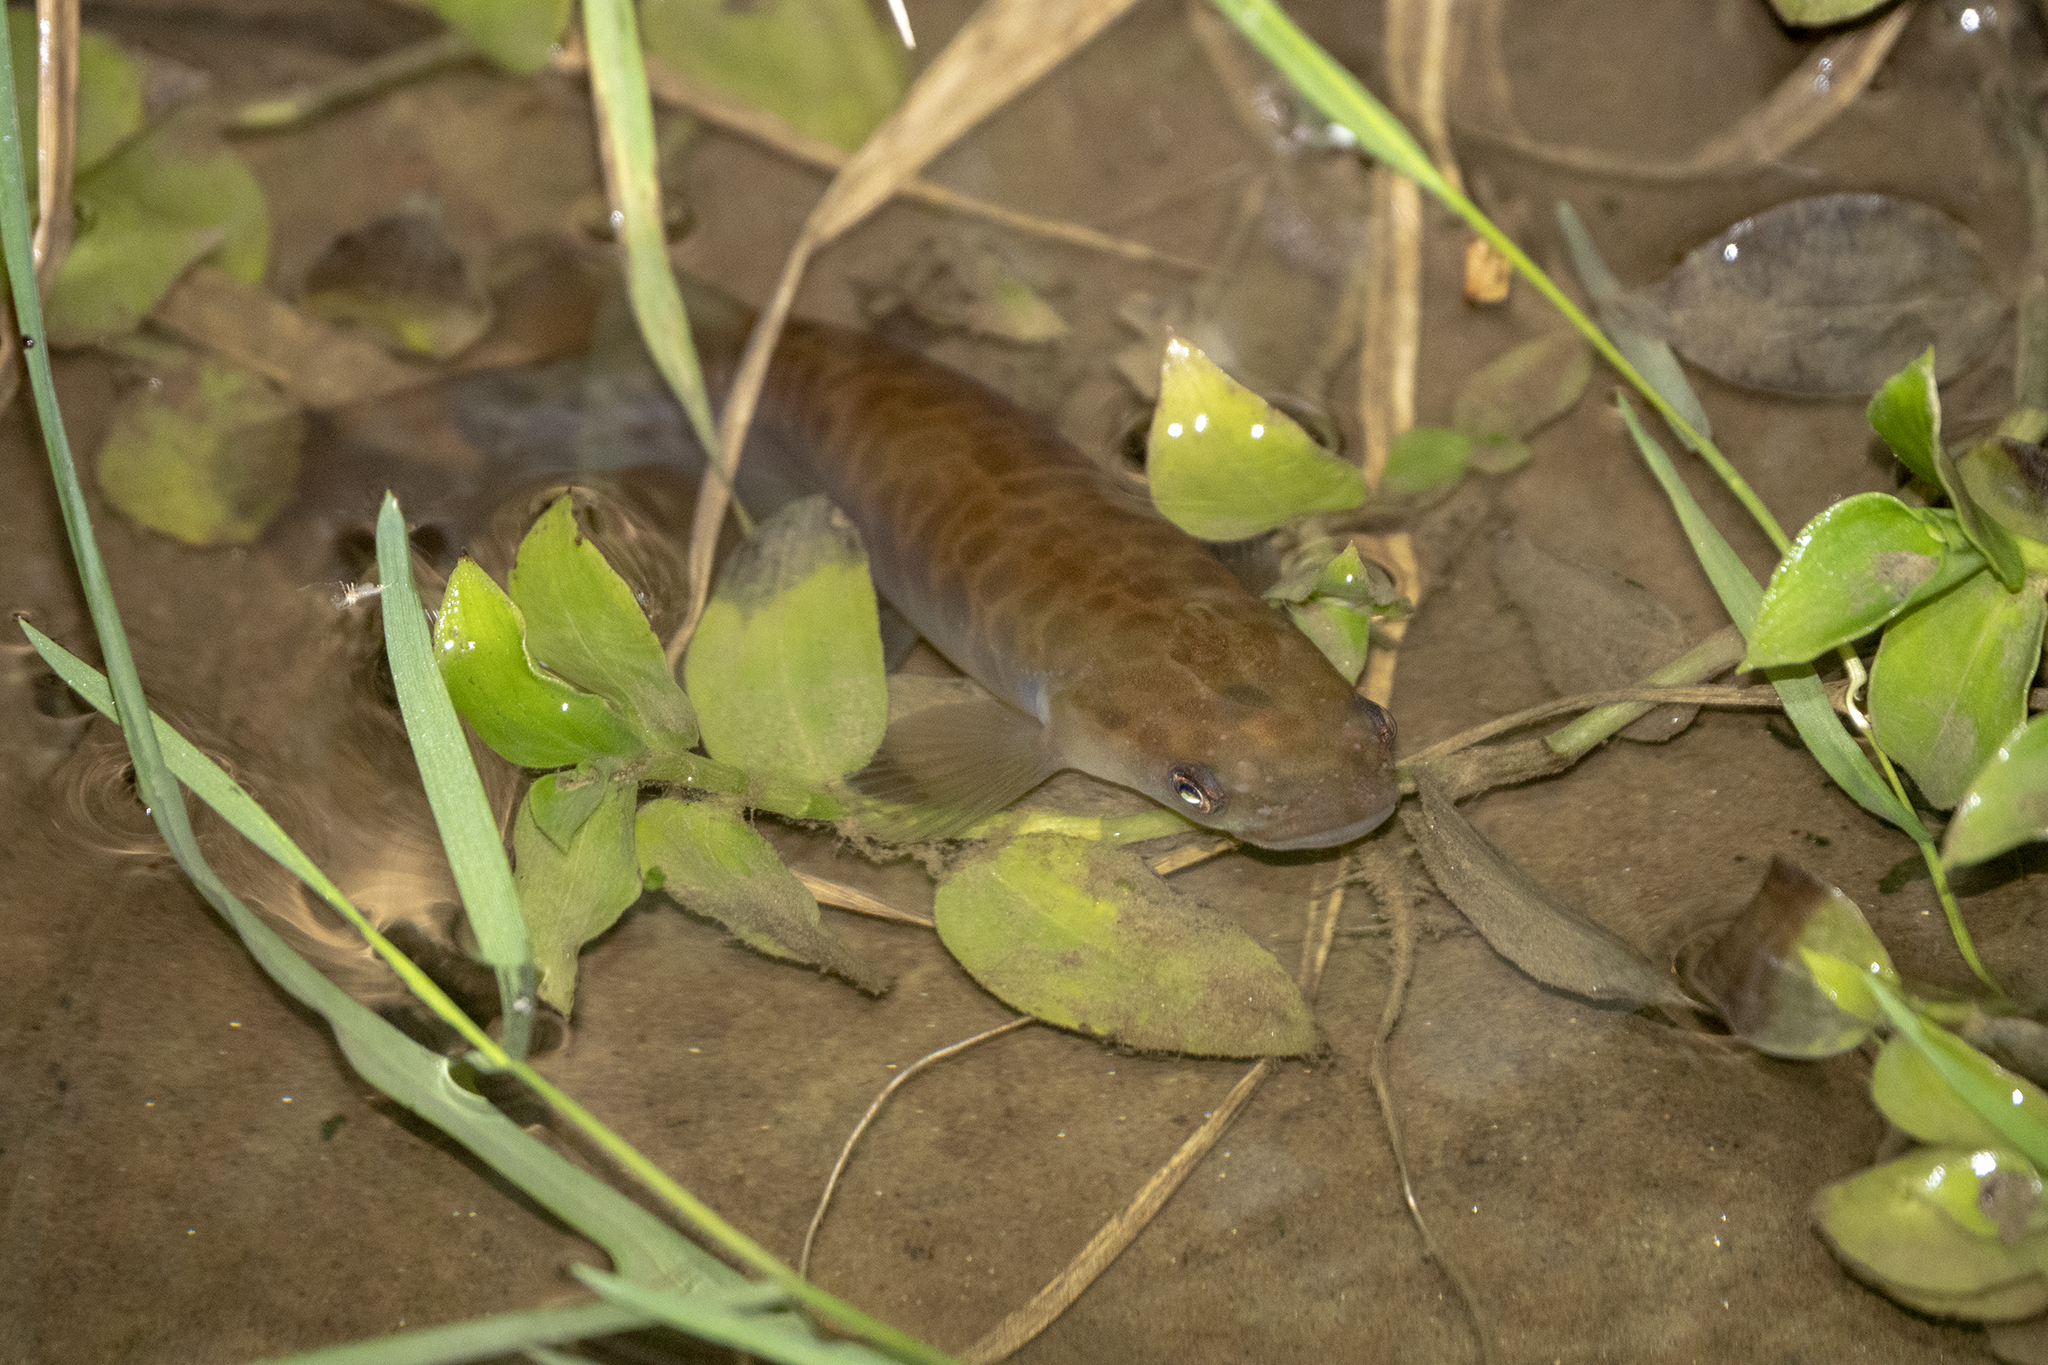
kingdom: Animalia
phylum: Chordata
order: Osmeriformes
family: Galaxiidae
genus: Galaxias
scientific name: Galaxias fasciatus
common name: Banded kokopu
